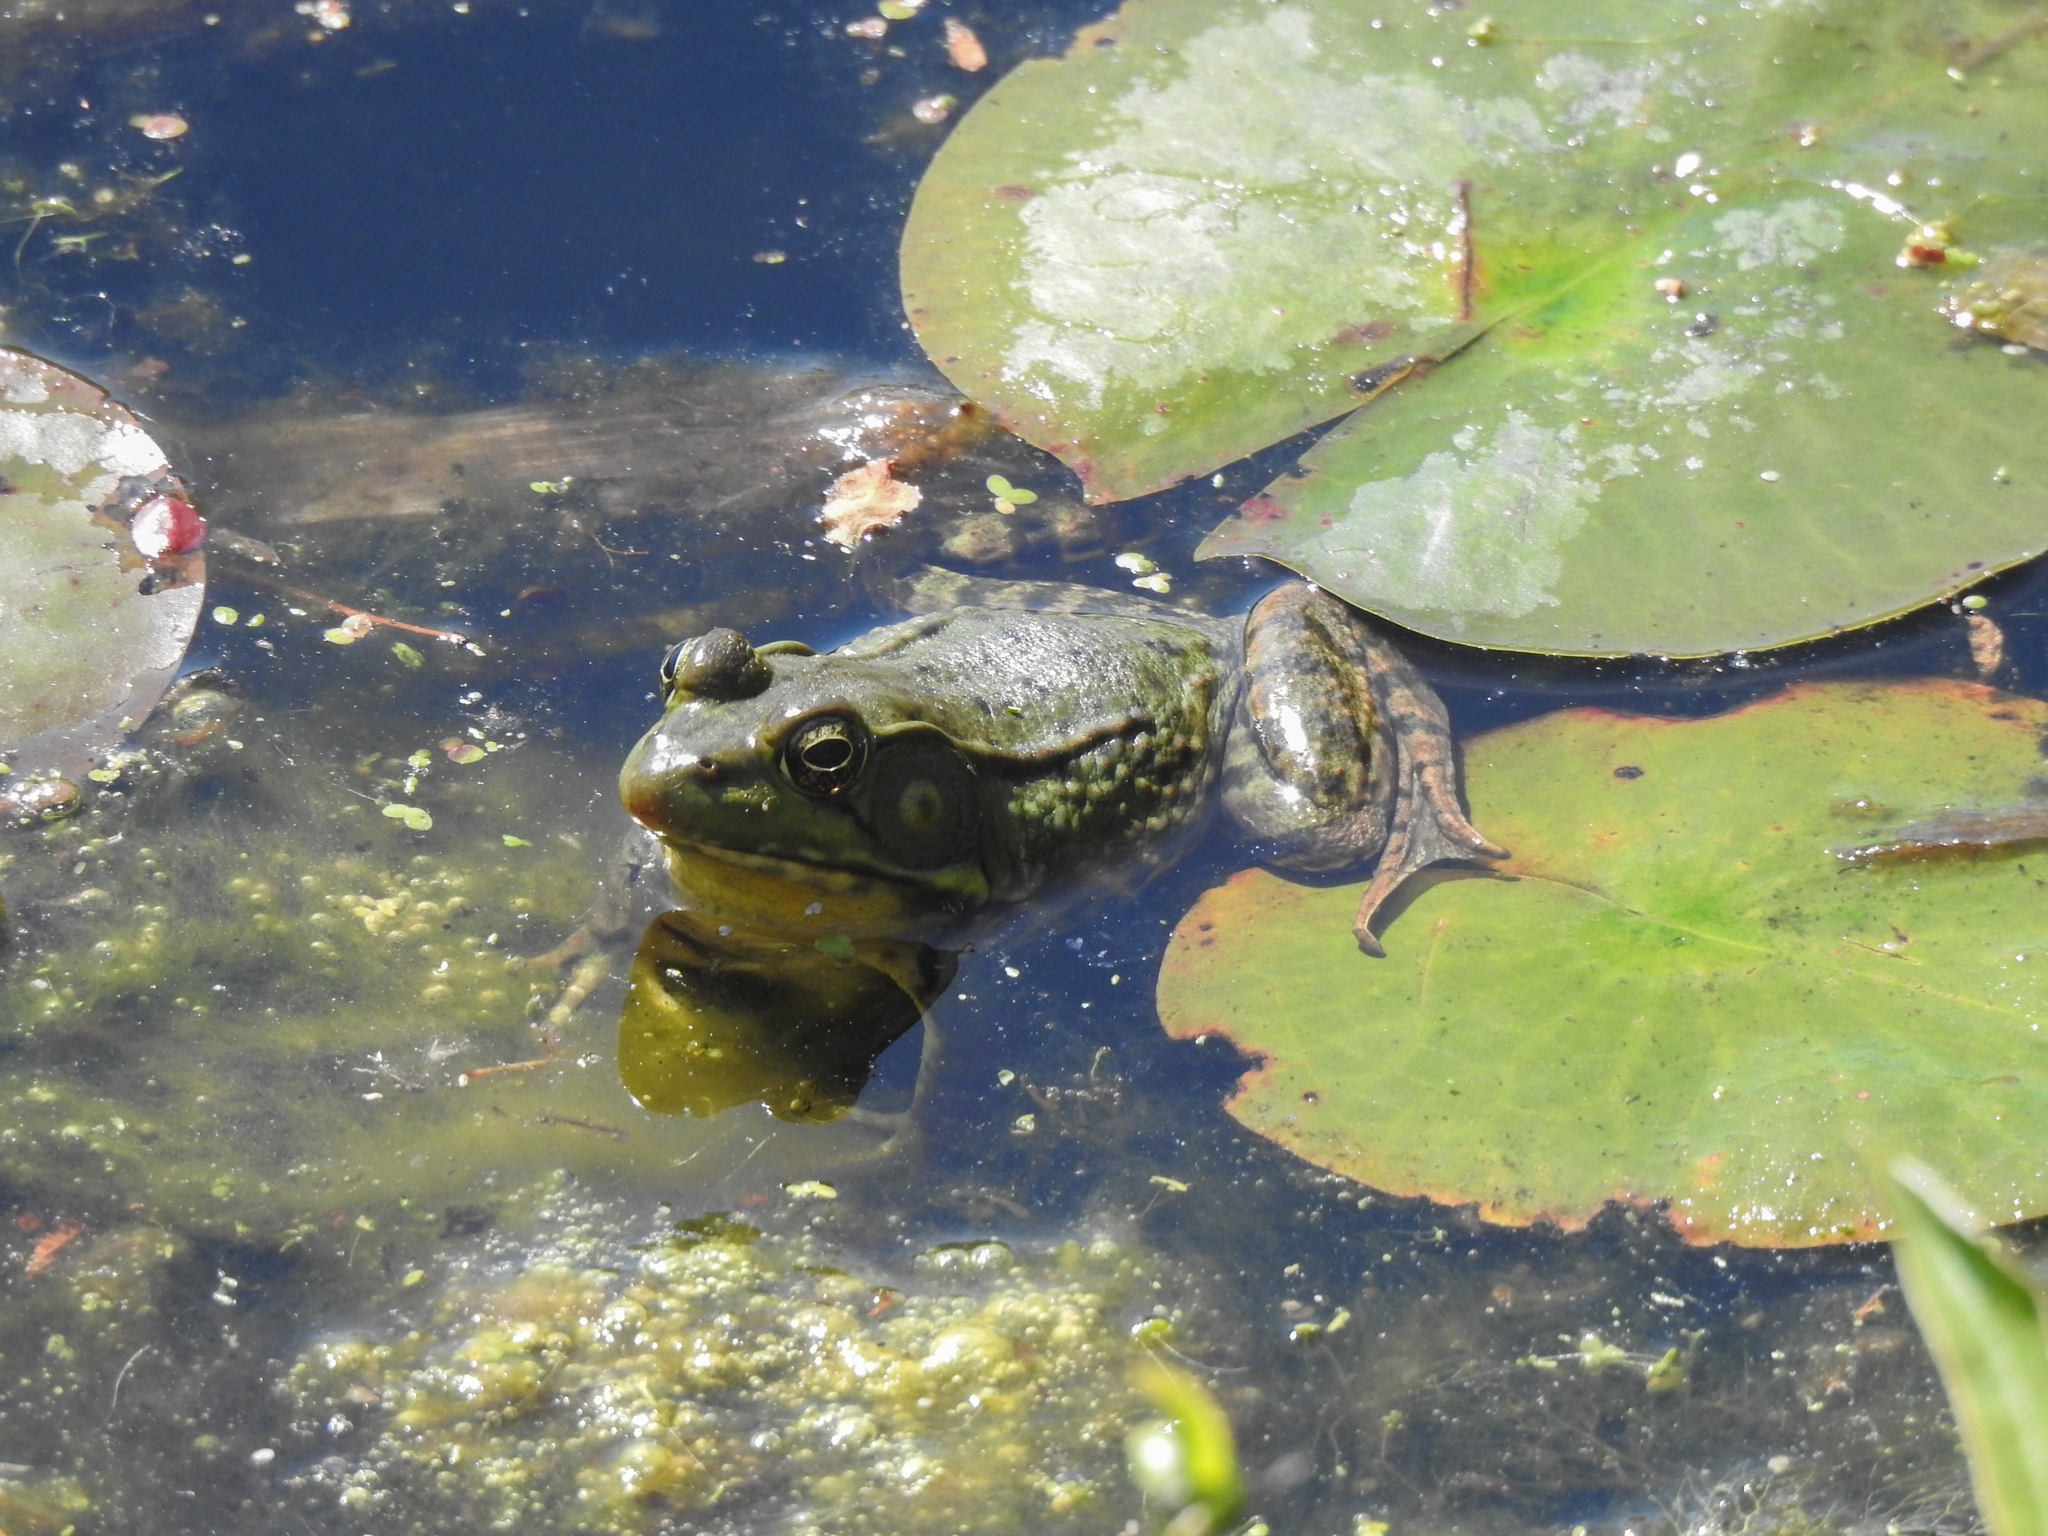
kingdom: Animalia
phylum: Chordata
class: Amphibia
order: Anura
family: Ranidae
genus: Lithobates
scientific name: Lithobates clamitans
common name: Green frog
